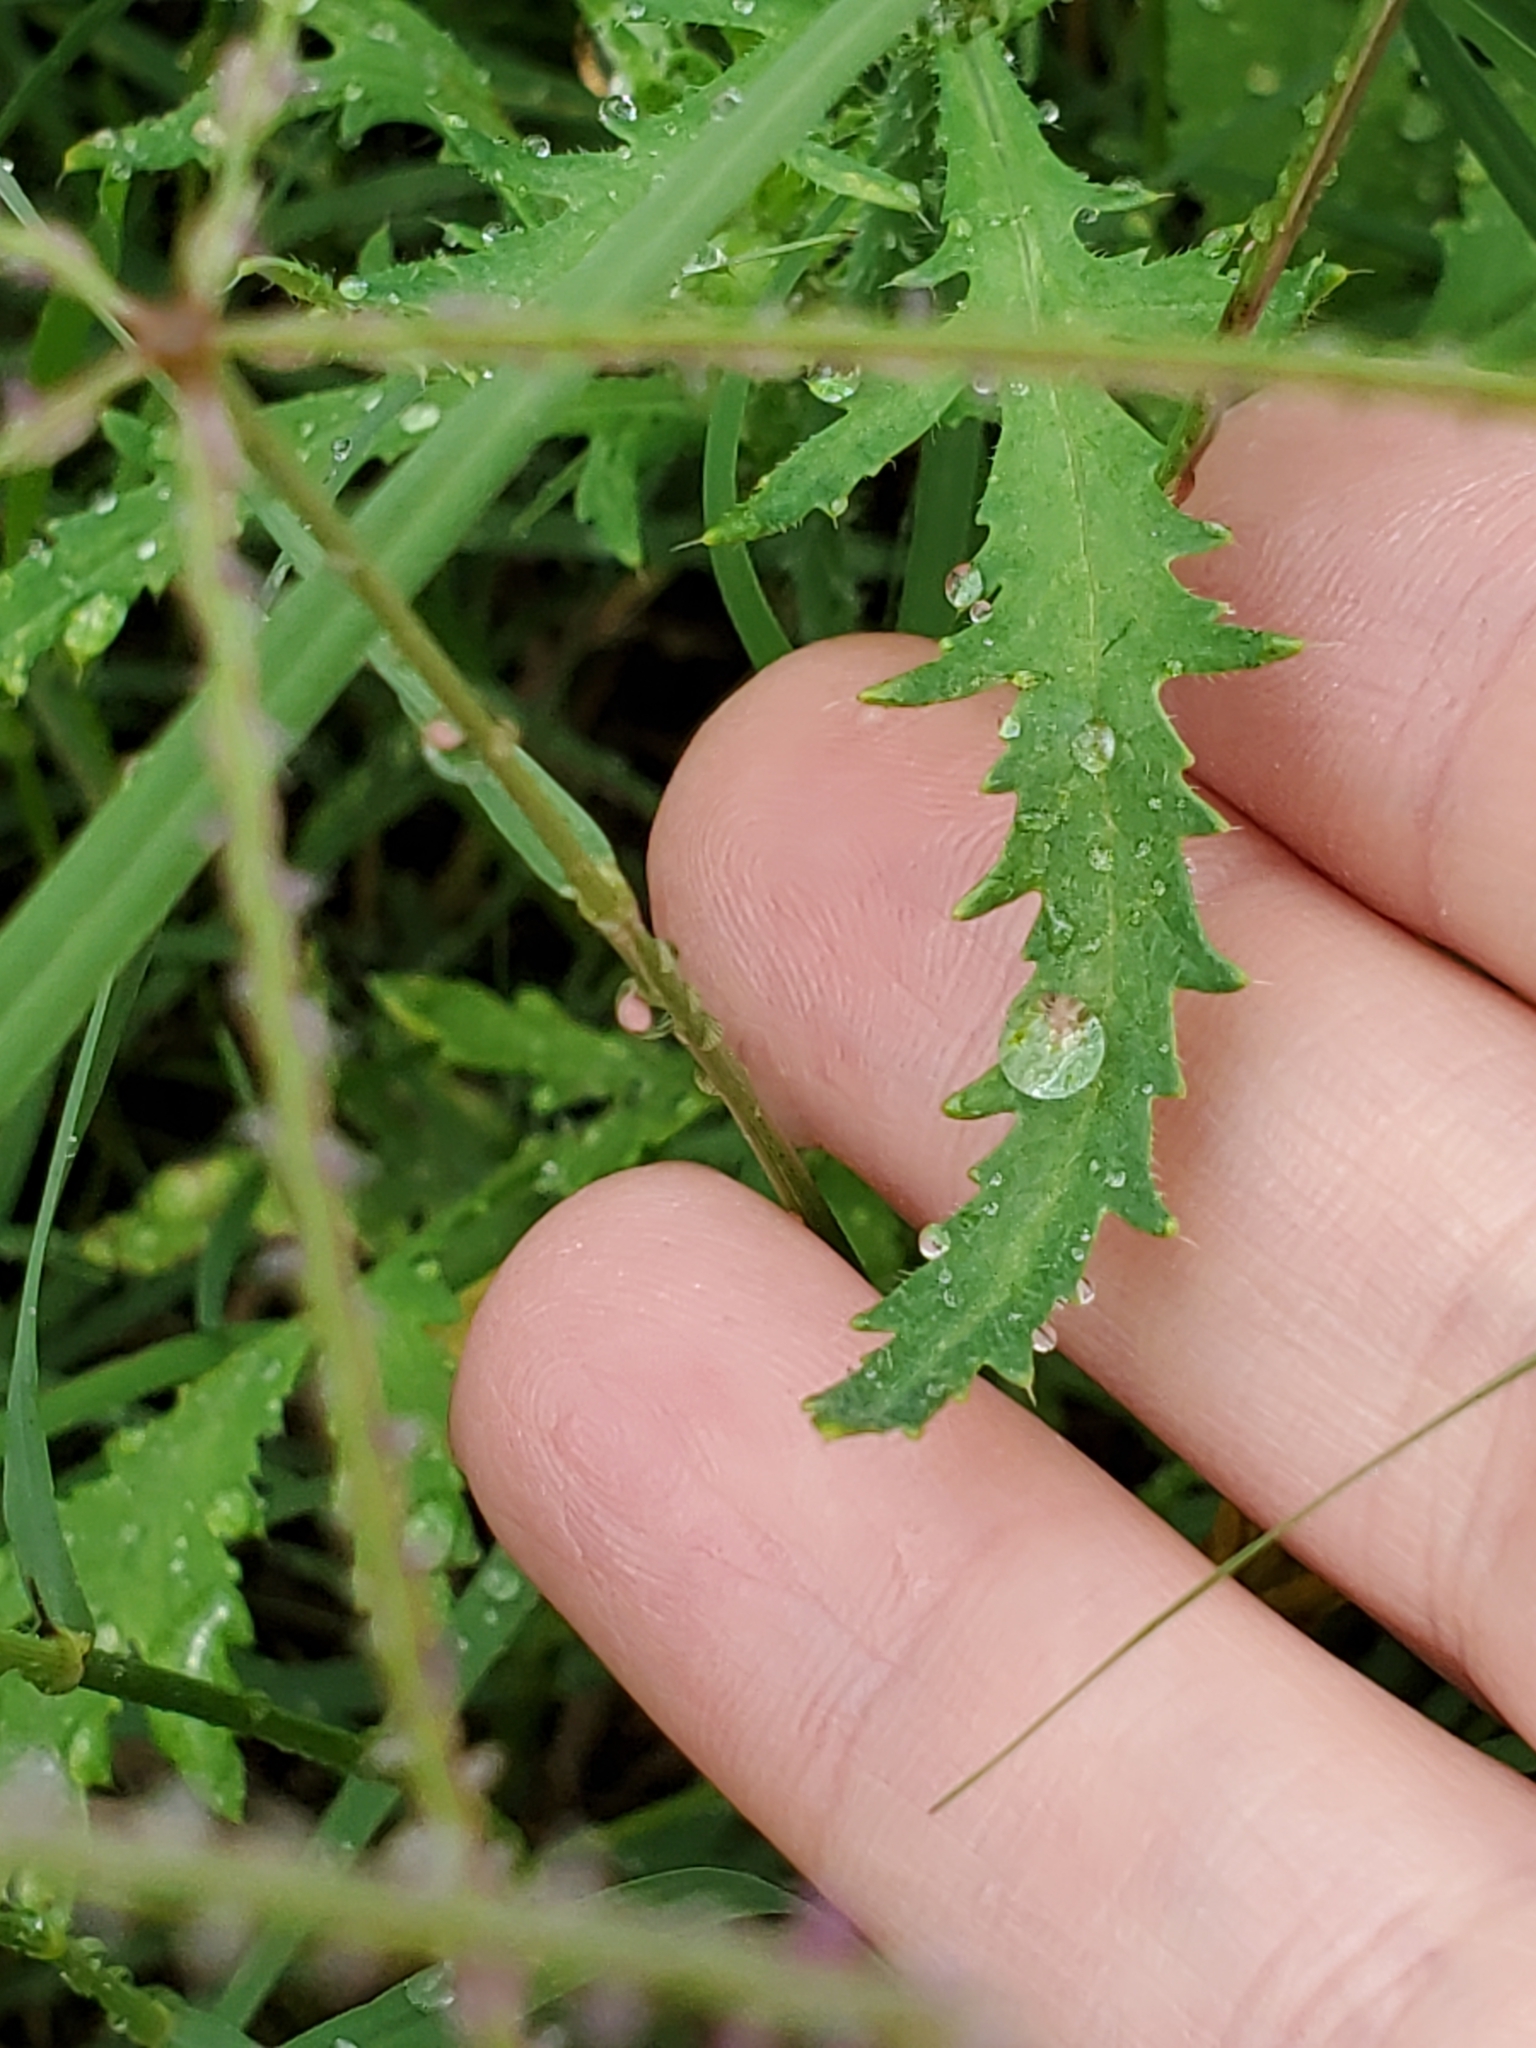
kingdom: Plantae
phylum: Tracheophyta
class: Magnoliopsida
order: Ranunculales
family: Papaveraceae
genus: Papaver
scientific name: Papaver rhoeas
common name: Corn poppy
